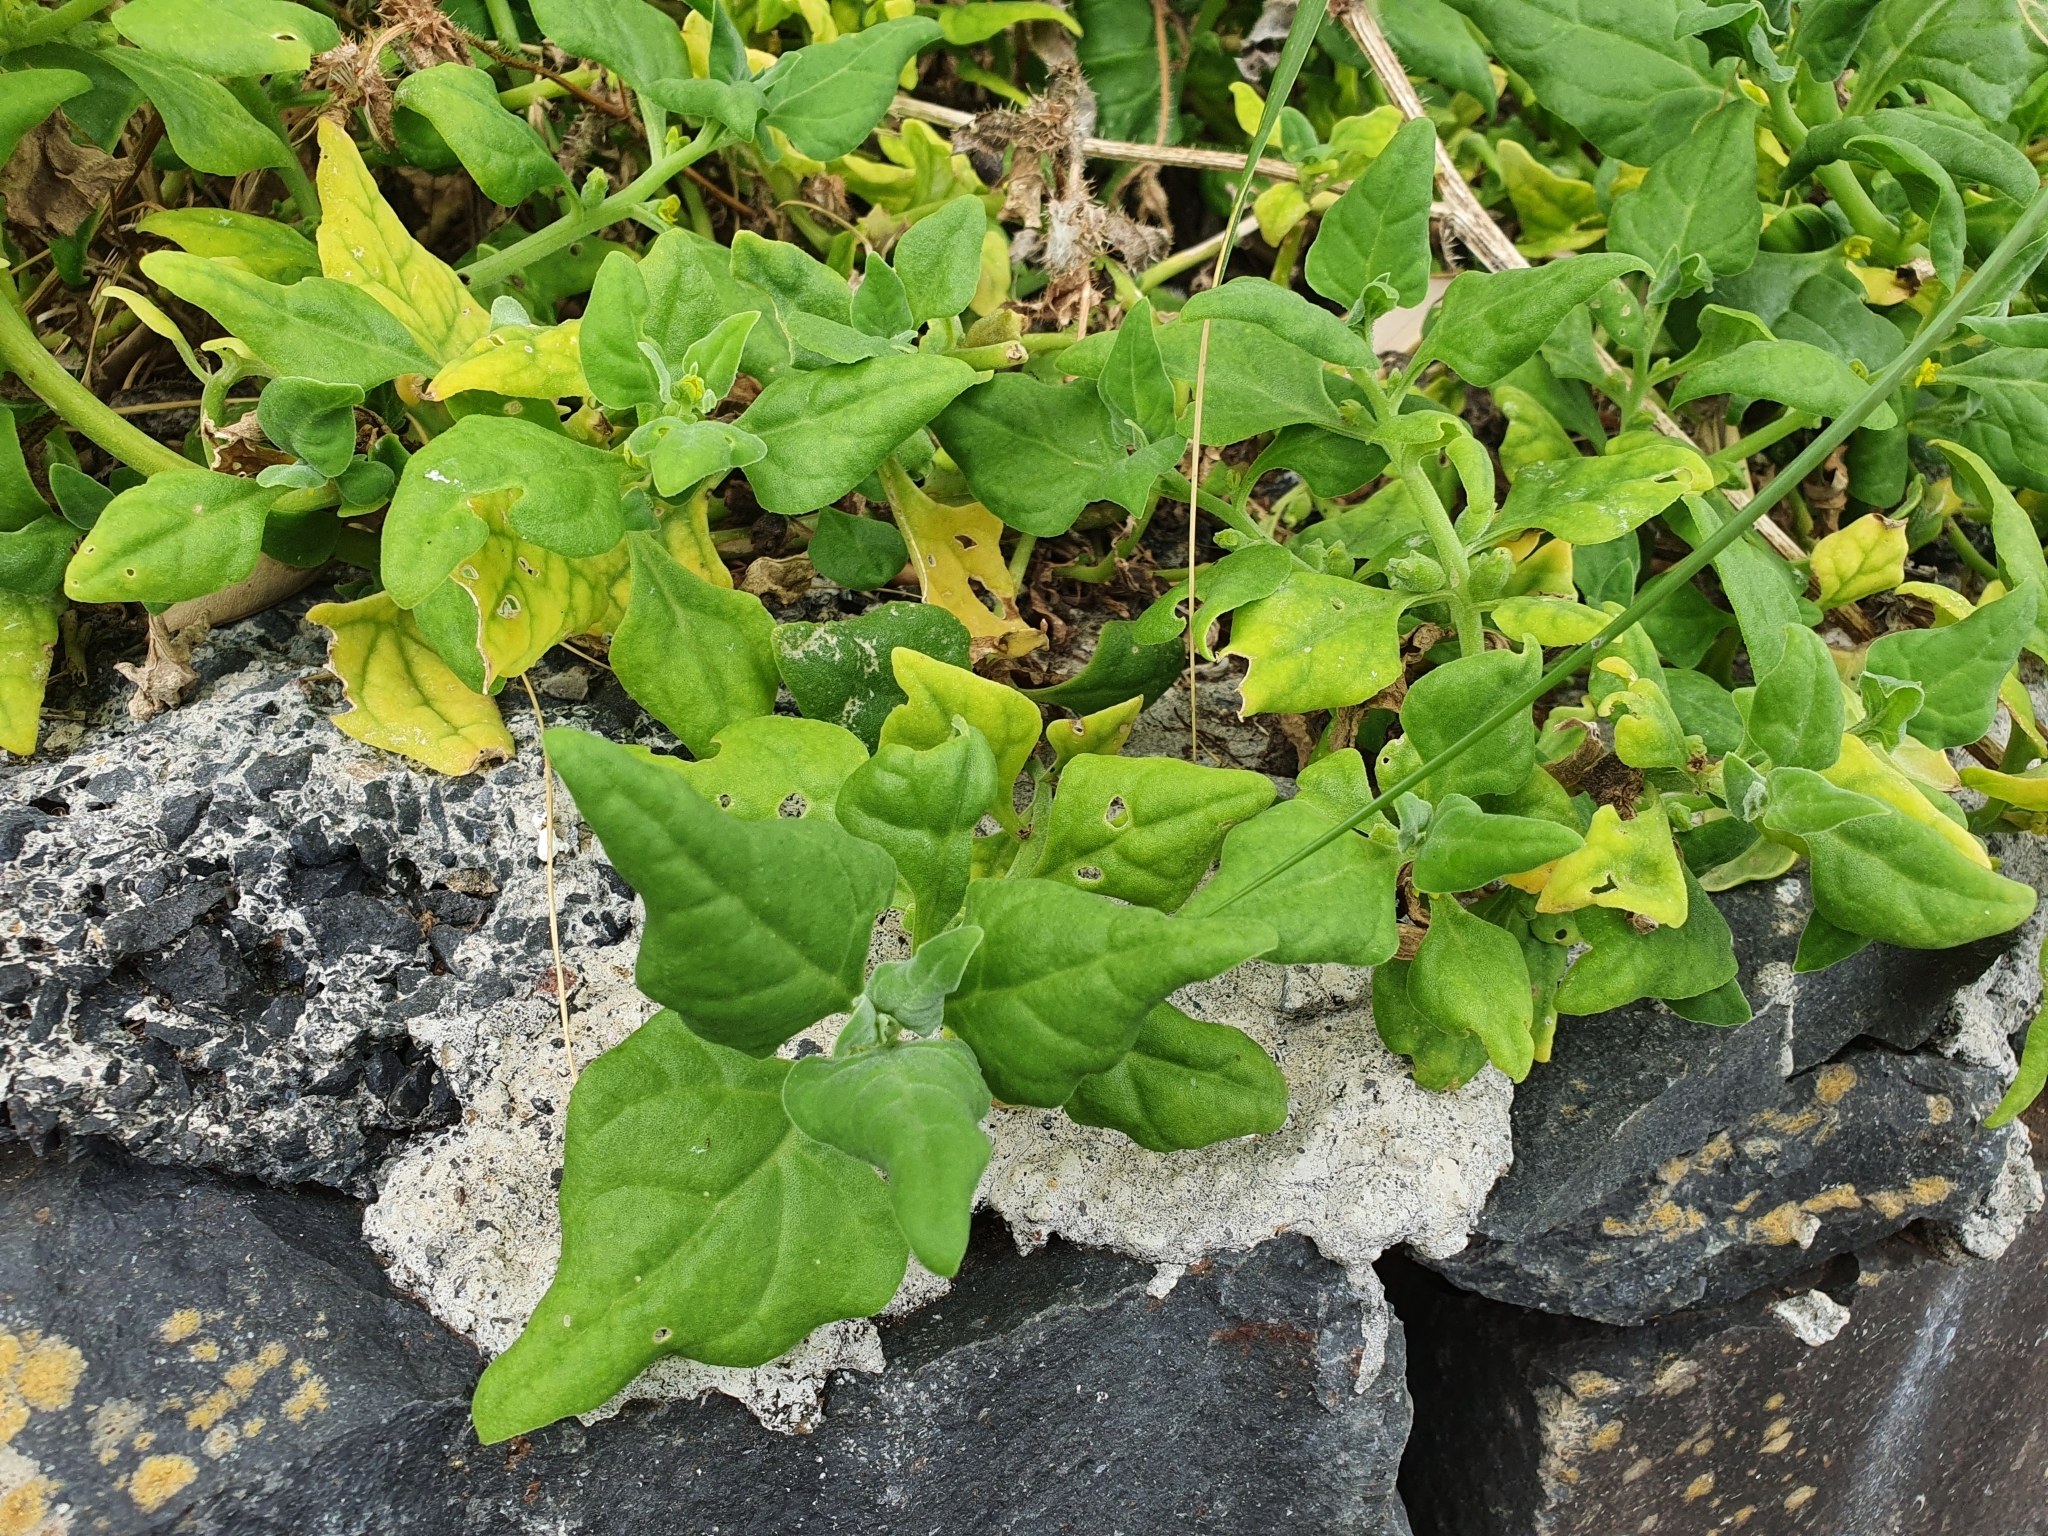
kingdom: Plantae
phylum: Tracheophyta
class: Magnoliopsida
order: Caryophyllales
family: Aizoaceae
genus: Tetragonia
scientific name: Tetragonia tetragonoides
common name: New zealand-spinach
